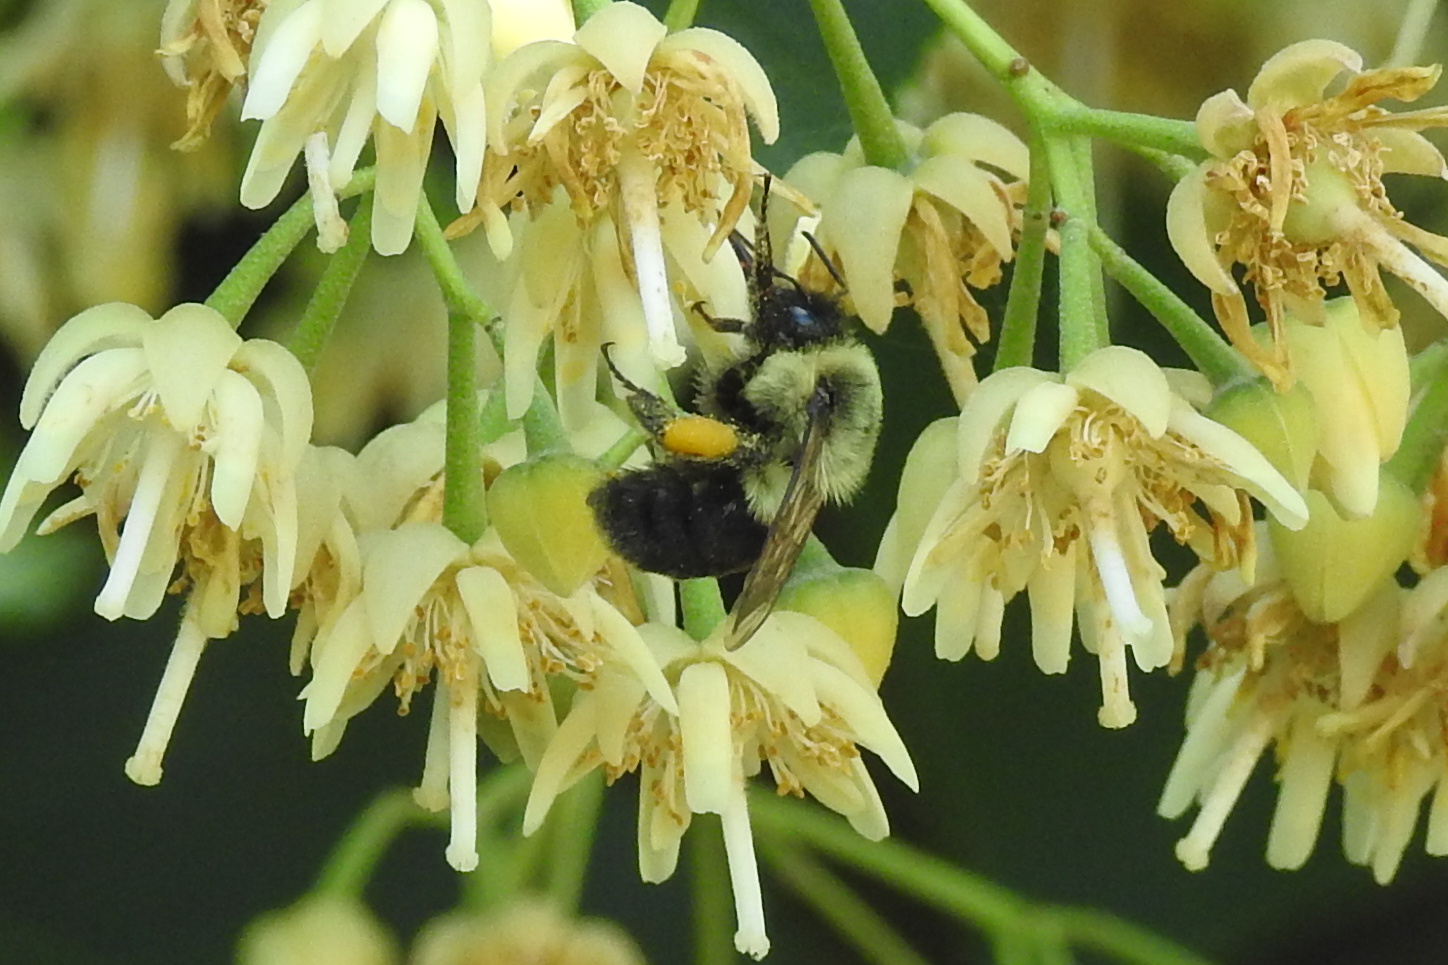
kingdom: Animalia
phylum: Arthropoda
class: Insecta
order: Hymenoptera
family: Apidae
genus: Bombus
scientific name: Bombus impatiens
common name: Common eastern bumble bee
